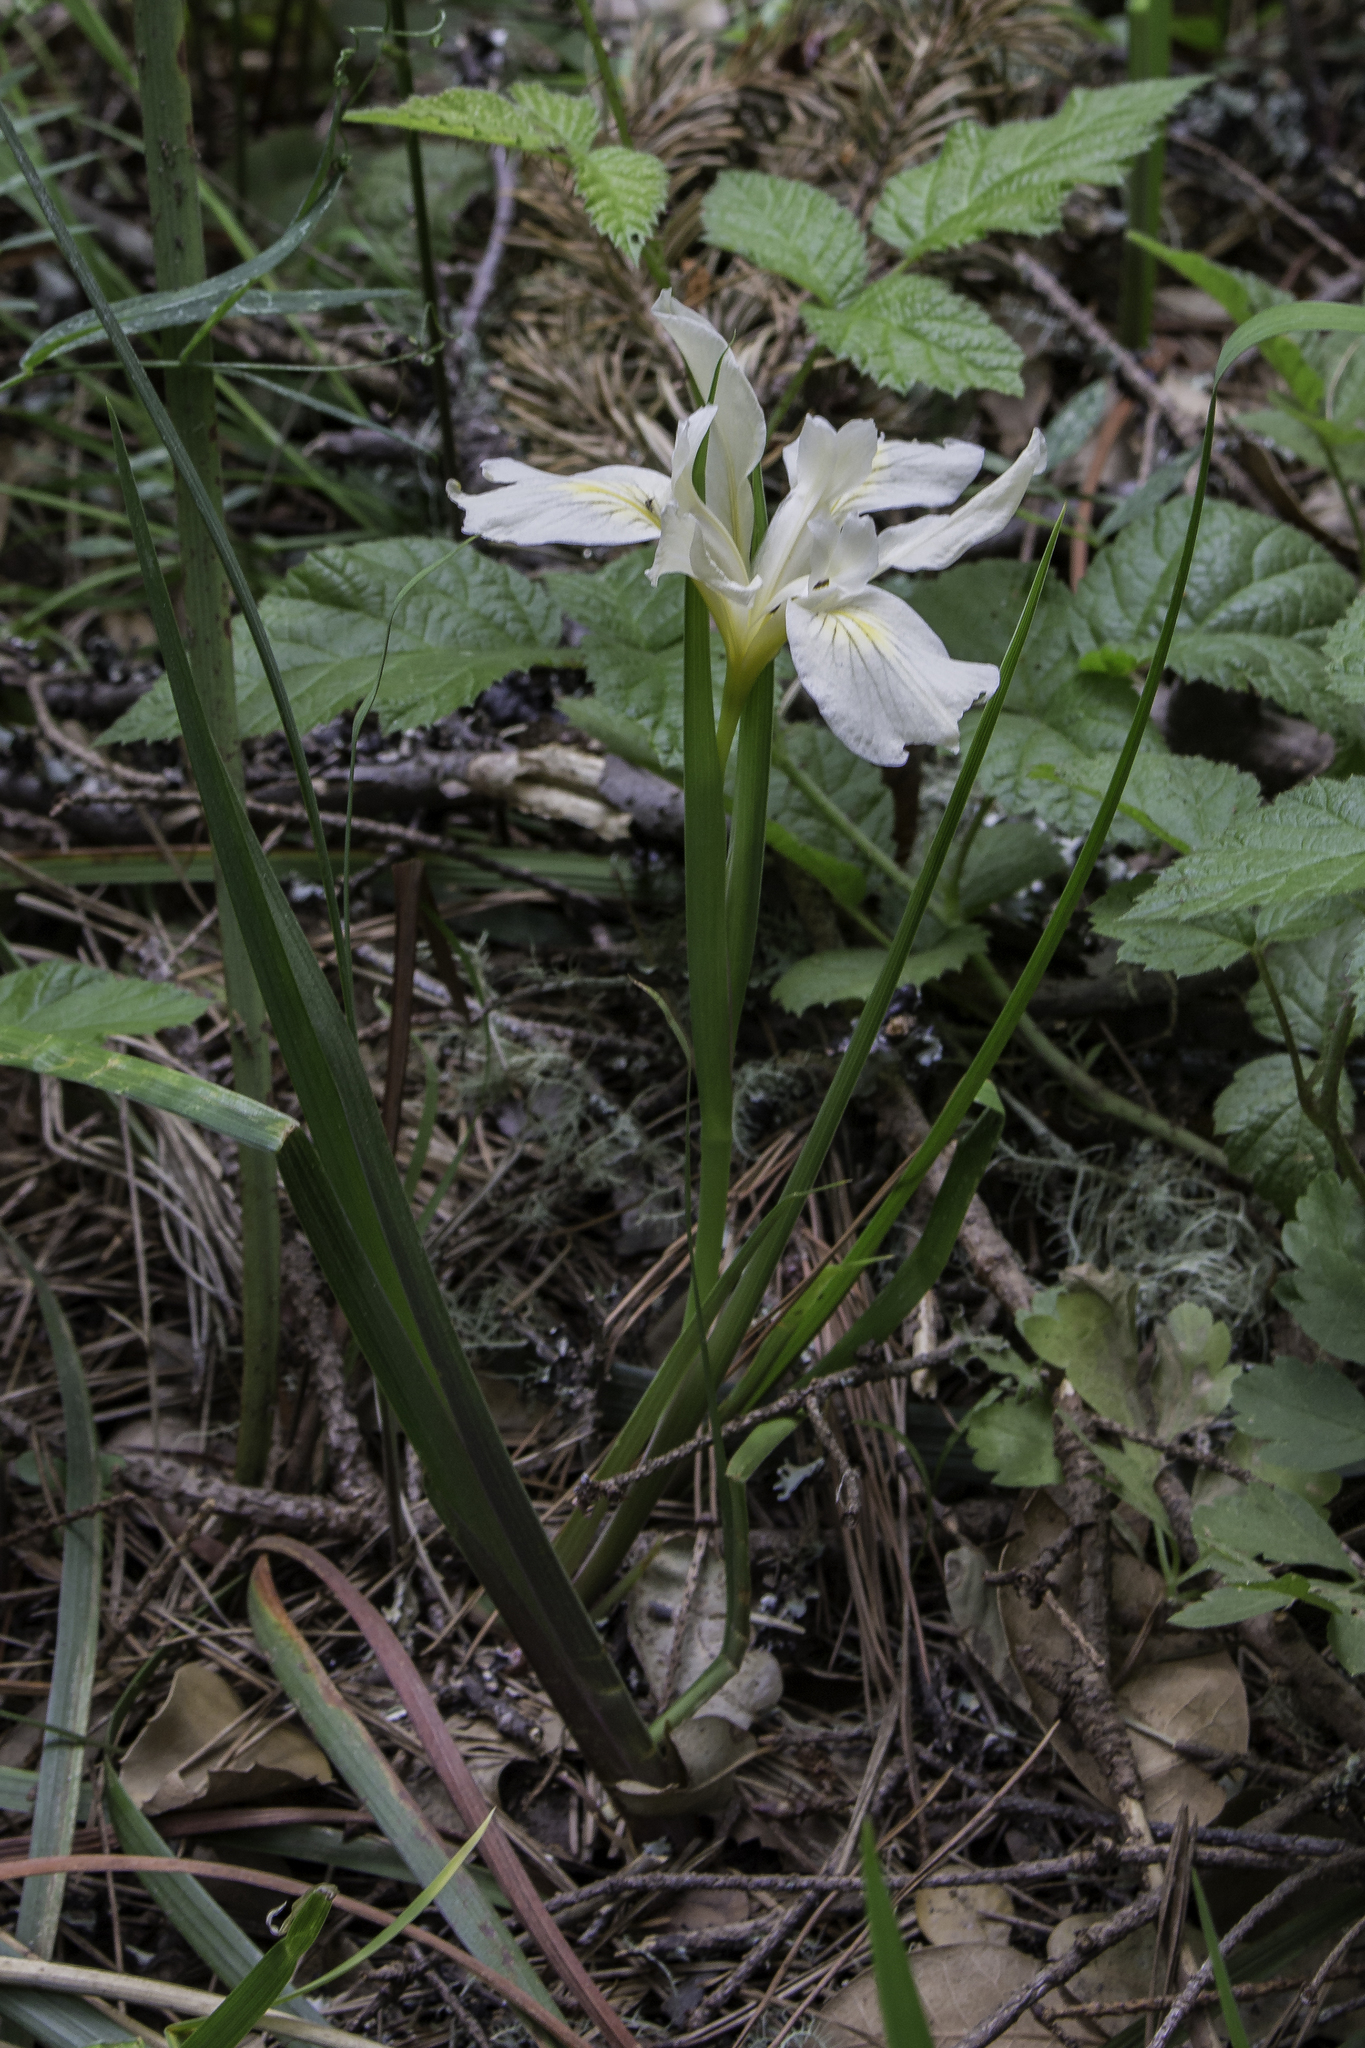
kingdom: Plantae
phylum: Tracheophyta
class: Liliopsida
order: Asparagales
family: Iridaceae
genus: Iris
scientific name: Iris douglasiana
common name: Marin iris
